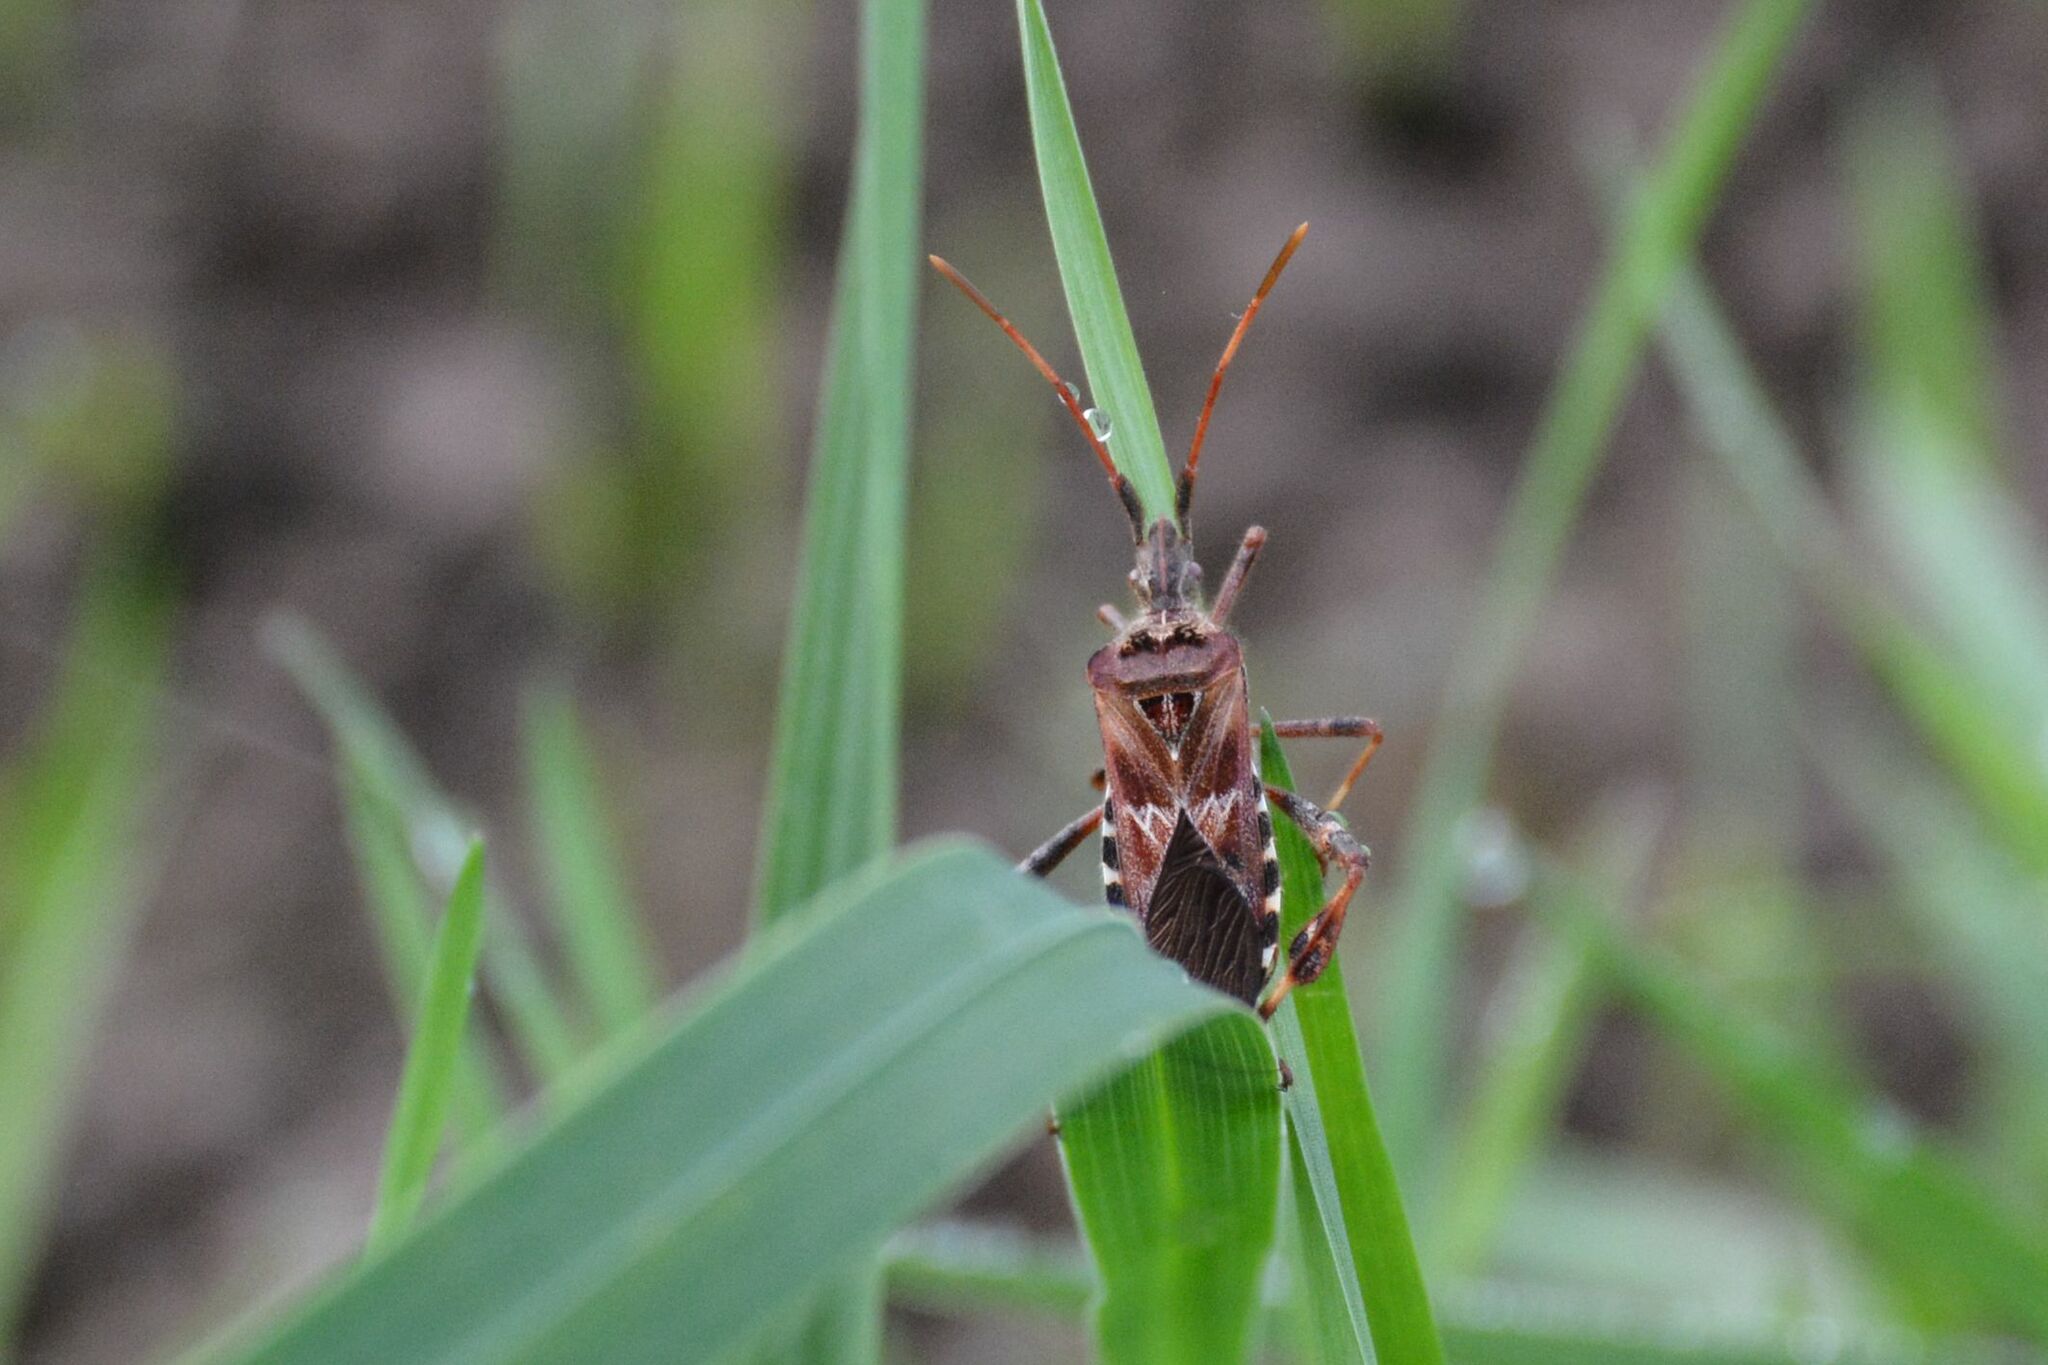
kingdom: Animalia
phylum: Arthropoda
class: Insecta
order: Hemiptera
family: Coreidae
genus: Leptoglossus
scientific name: Leptoglossus occidentalis
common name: Western conifer-seed bug
